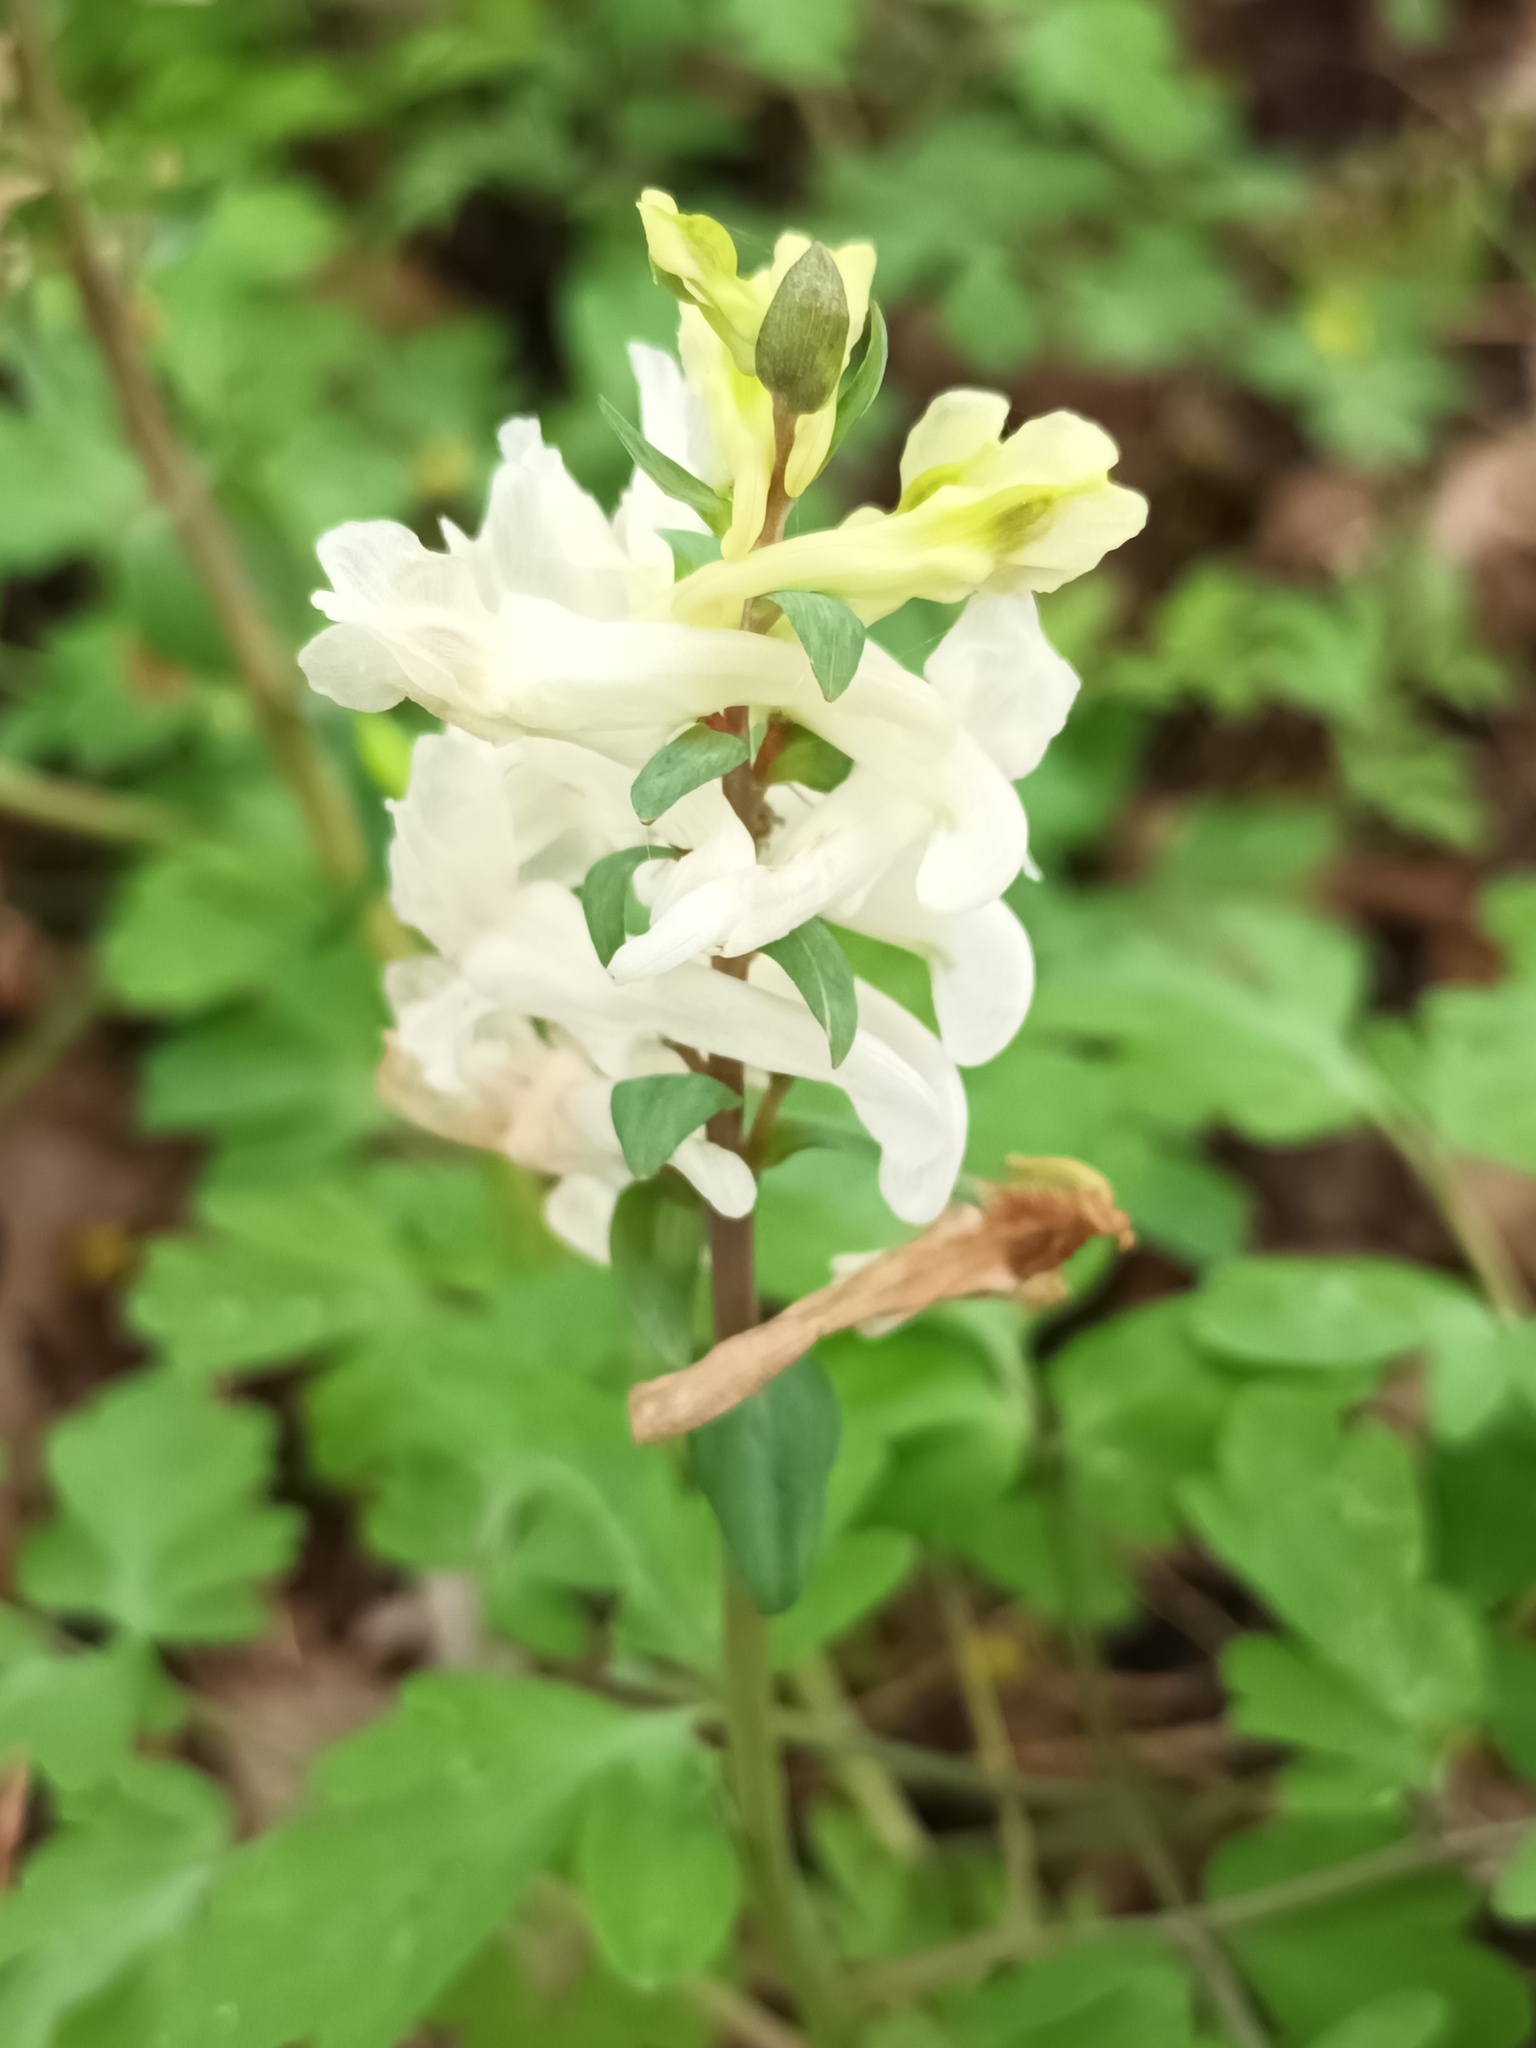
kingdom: Plantae
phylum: Tracheophyta
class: Magnoliopsida
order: Ranunculales
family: Papaveraceae
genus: Corydalis
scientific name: Corydalis cava
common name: Hollowroot
